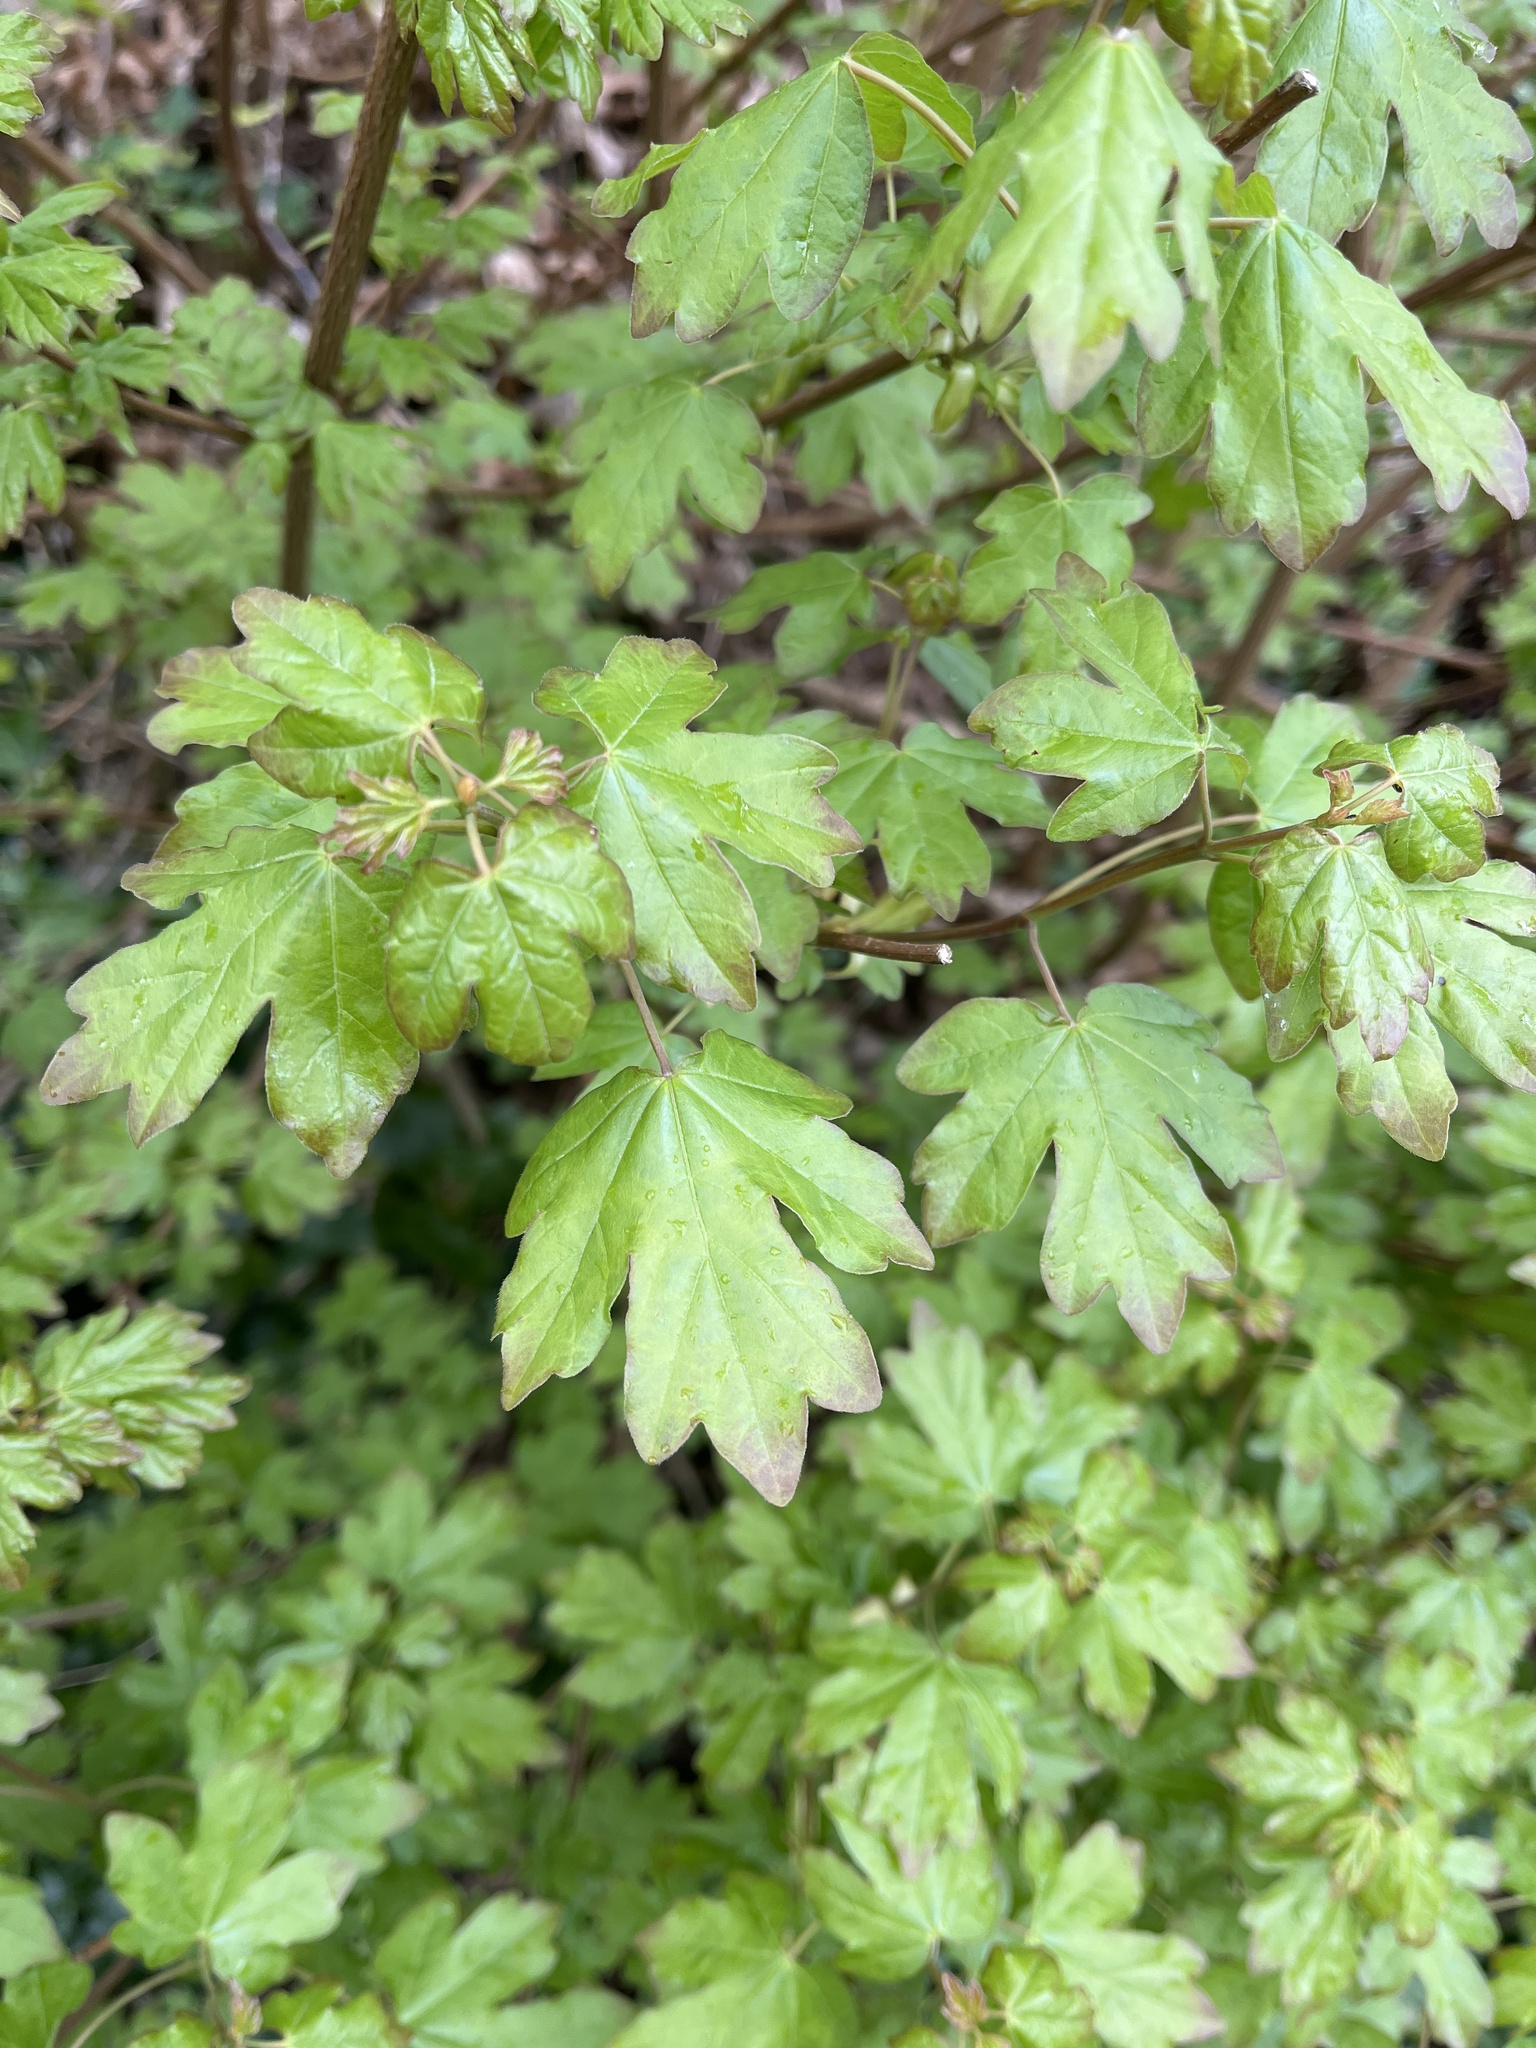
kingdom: Plantae
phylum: Tracheophyta
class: Magnoliopsida
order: Sapindales
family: Sapindaceae
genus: Acer
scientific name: Acer campestre
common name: Field maple
